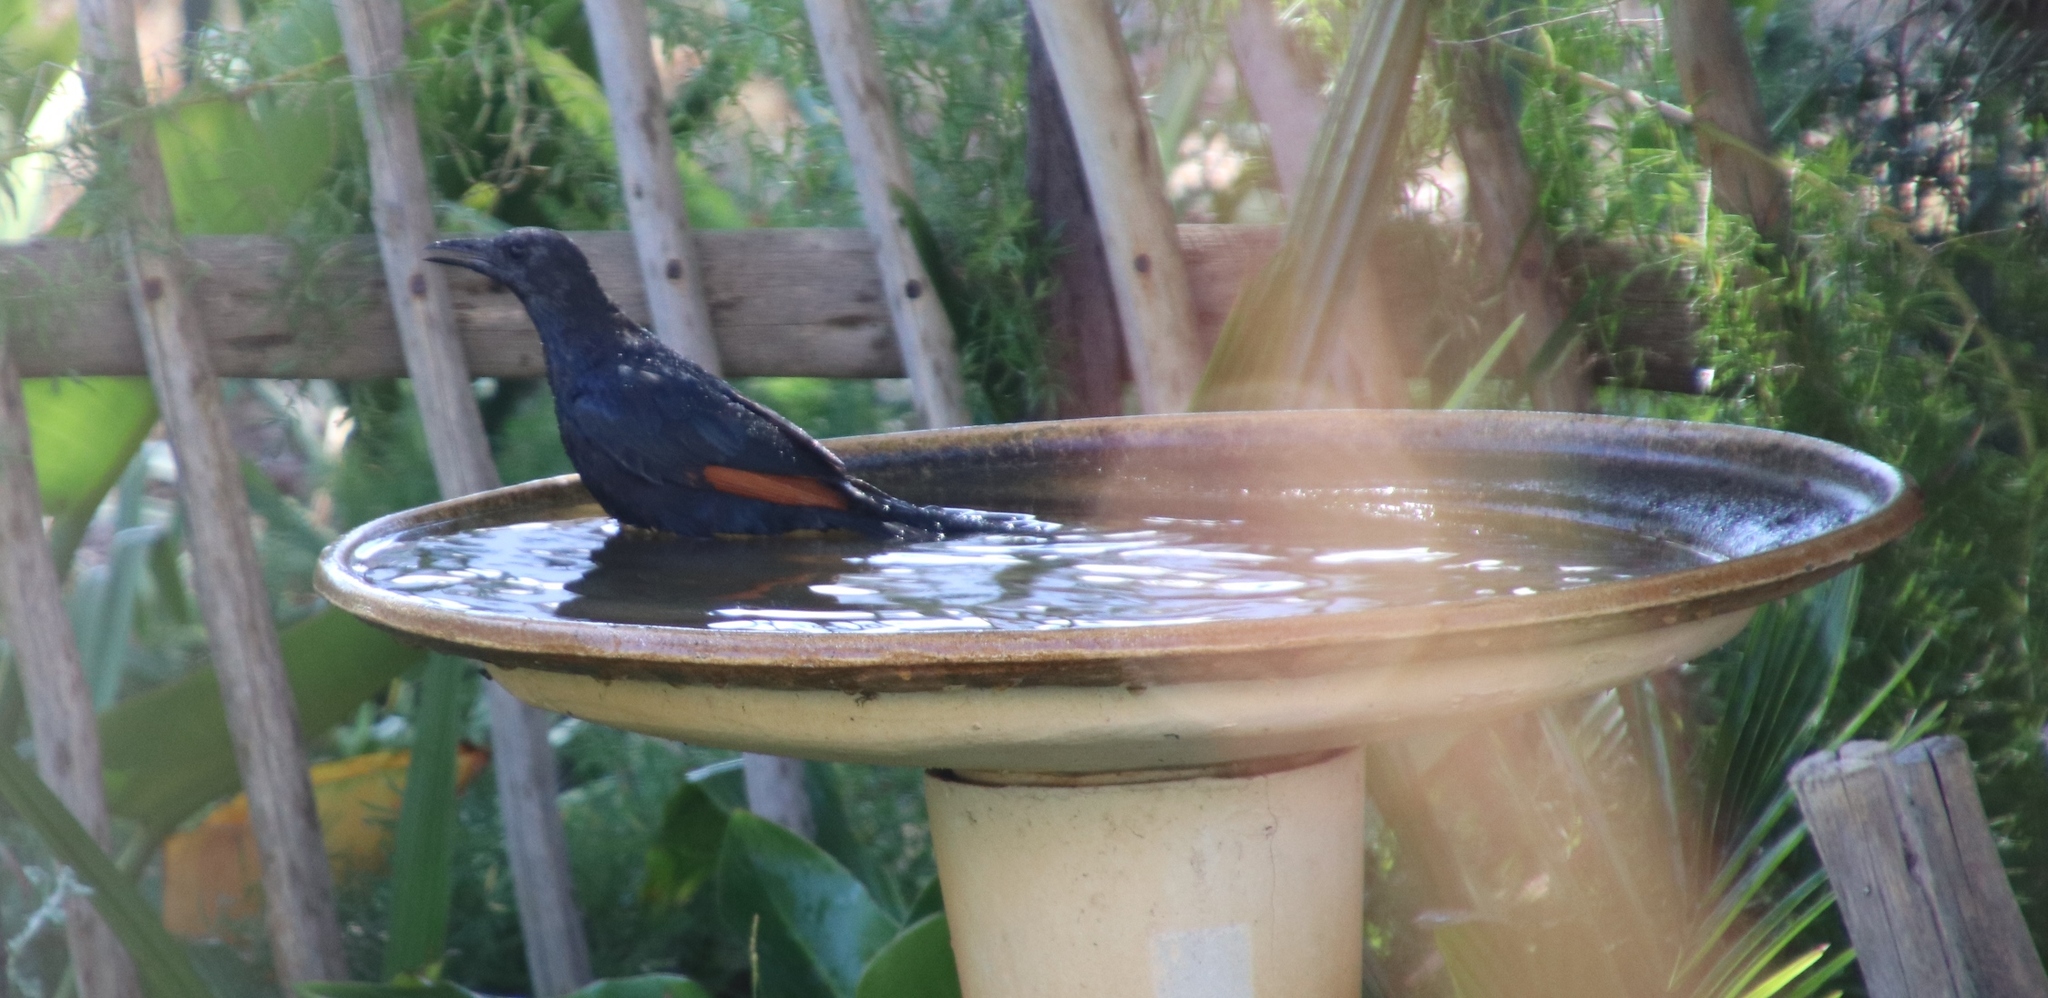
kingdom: Animalia
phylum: Chordata
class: Aves
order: Passeriformes
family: Sturnidae
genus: Onychognathus
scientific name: Onychognathus morio
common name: Red-winged starling
